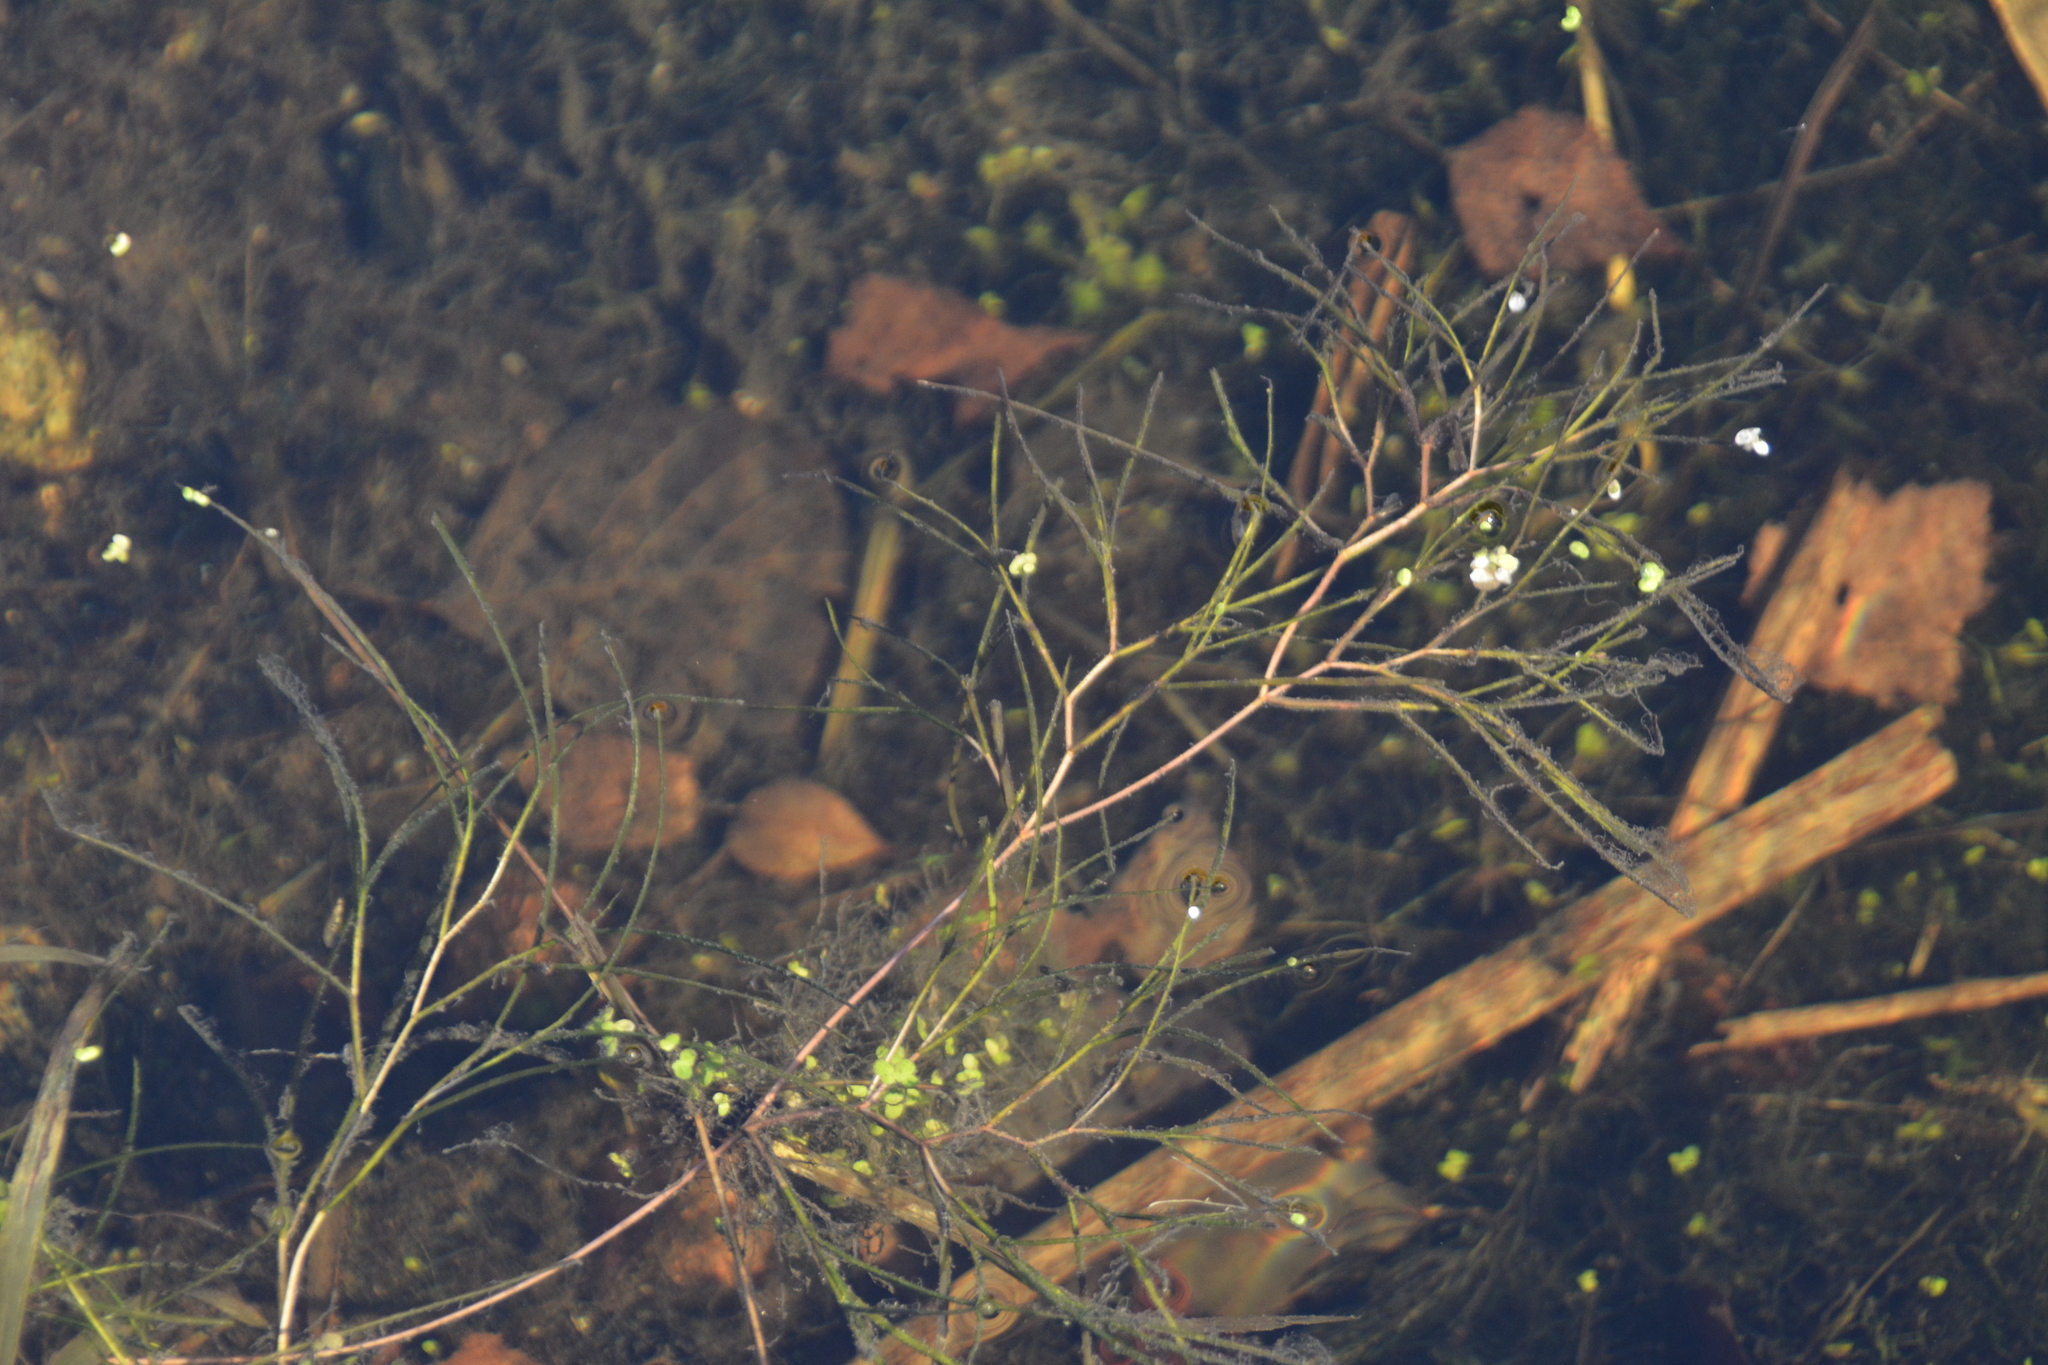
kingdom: Plantae
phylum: Tracheophyta
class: Liliopsida
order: Alismatales
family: Potamogetonaceae
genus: Stuckenia
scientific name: Stuckenia pectinata
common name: Sago pondweed
